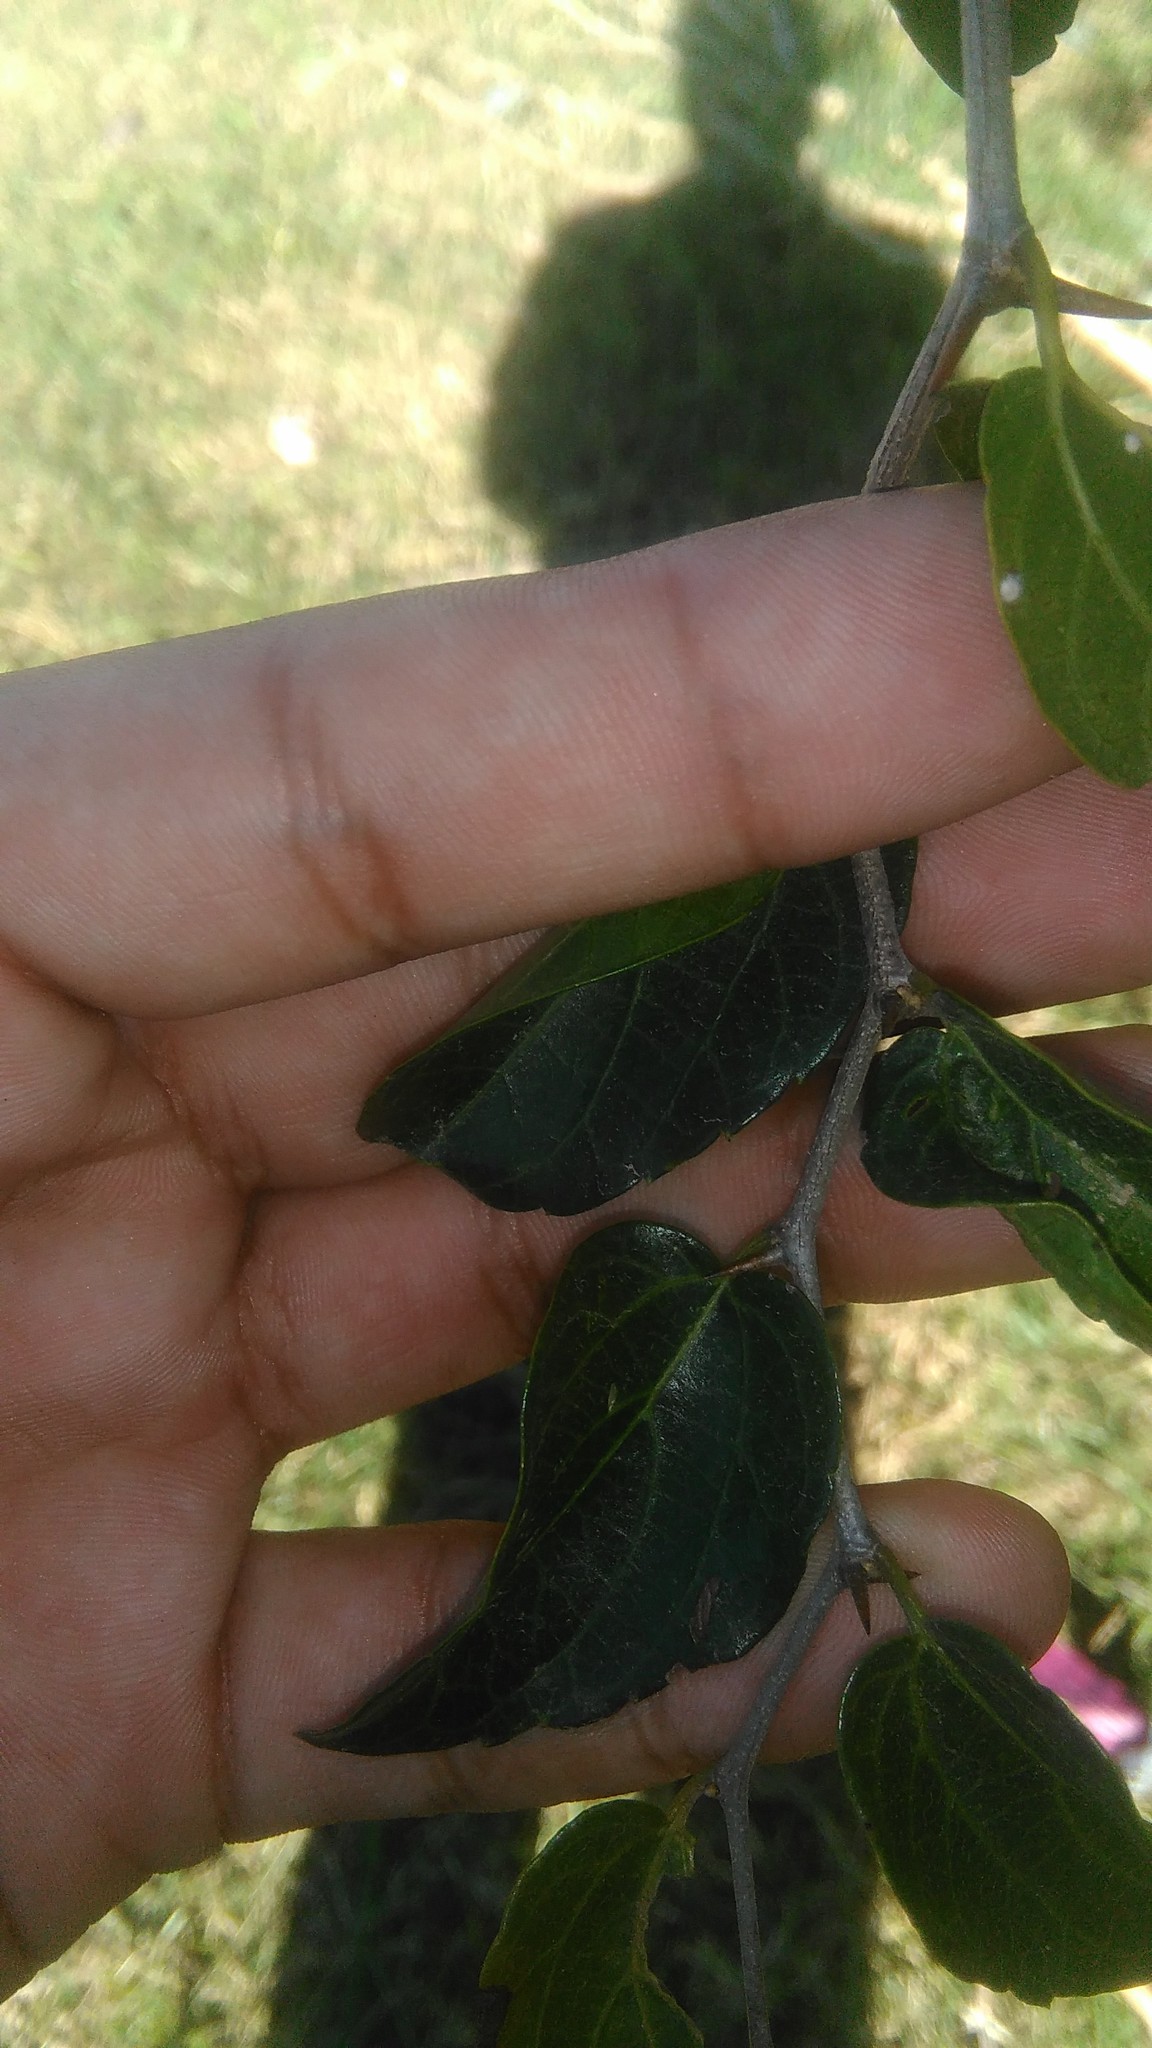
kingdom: Plantae
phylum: Tracheophyta
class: Magnoliopsida
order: Rosales
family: Cannabaceae
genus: Celtis
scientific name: Celtis tala
